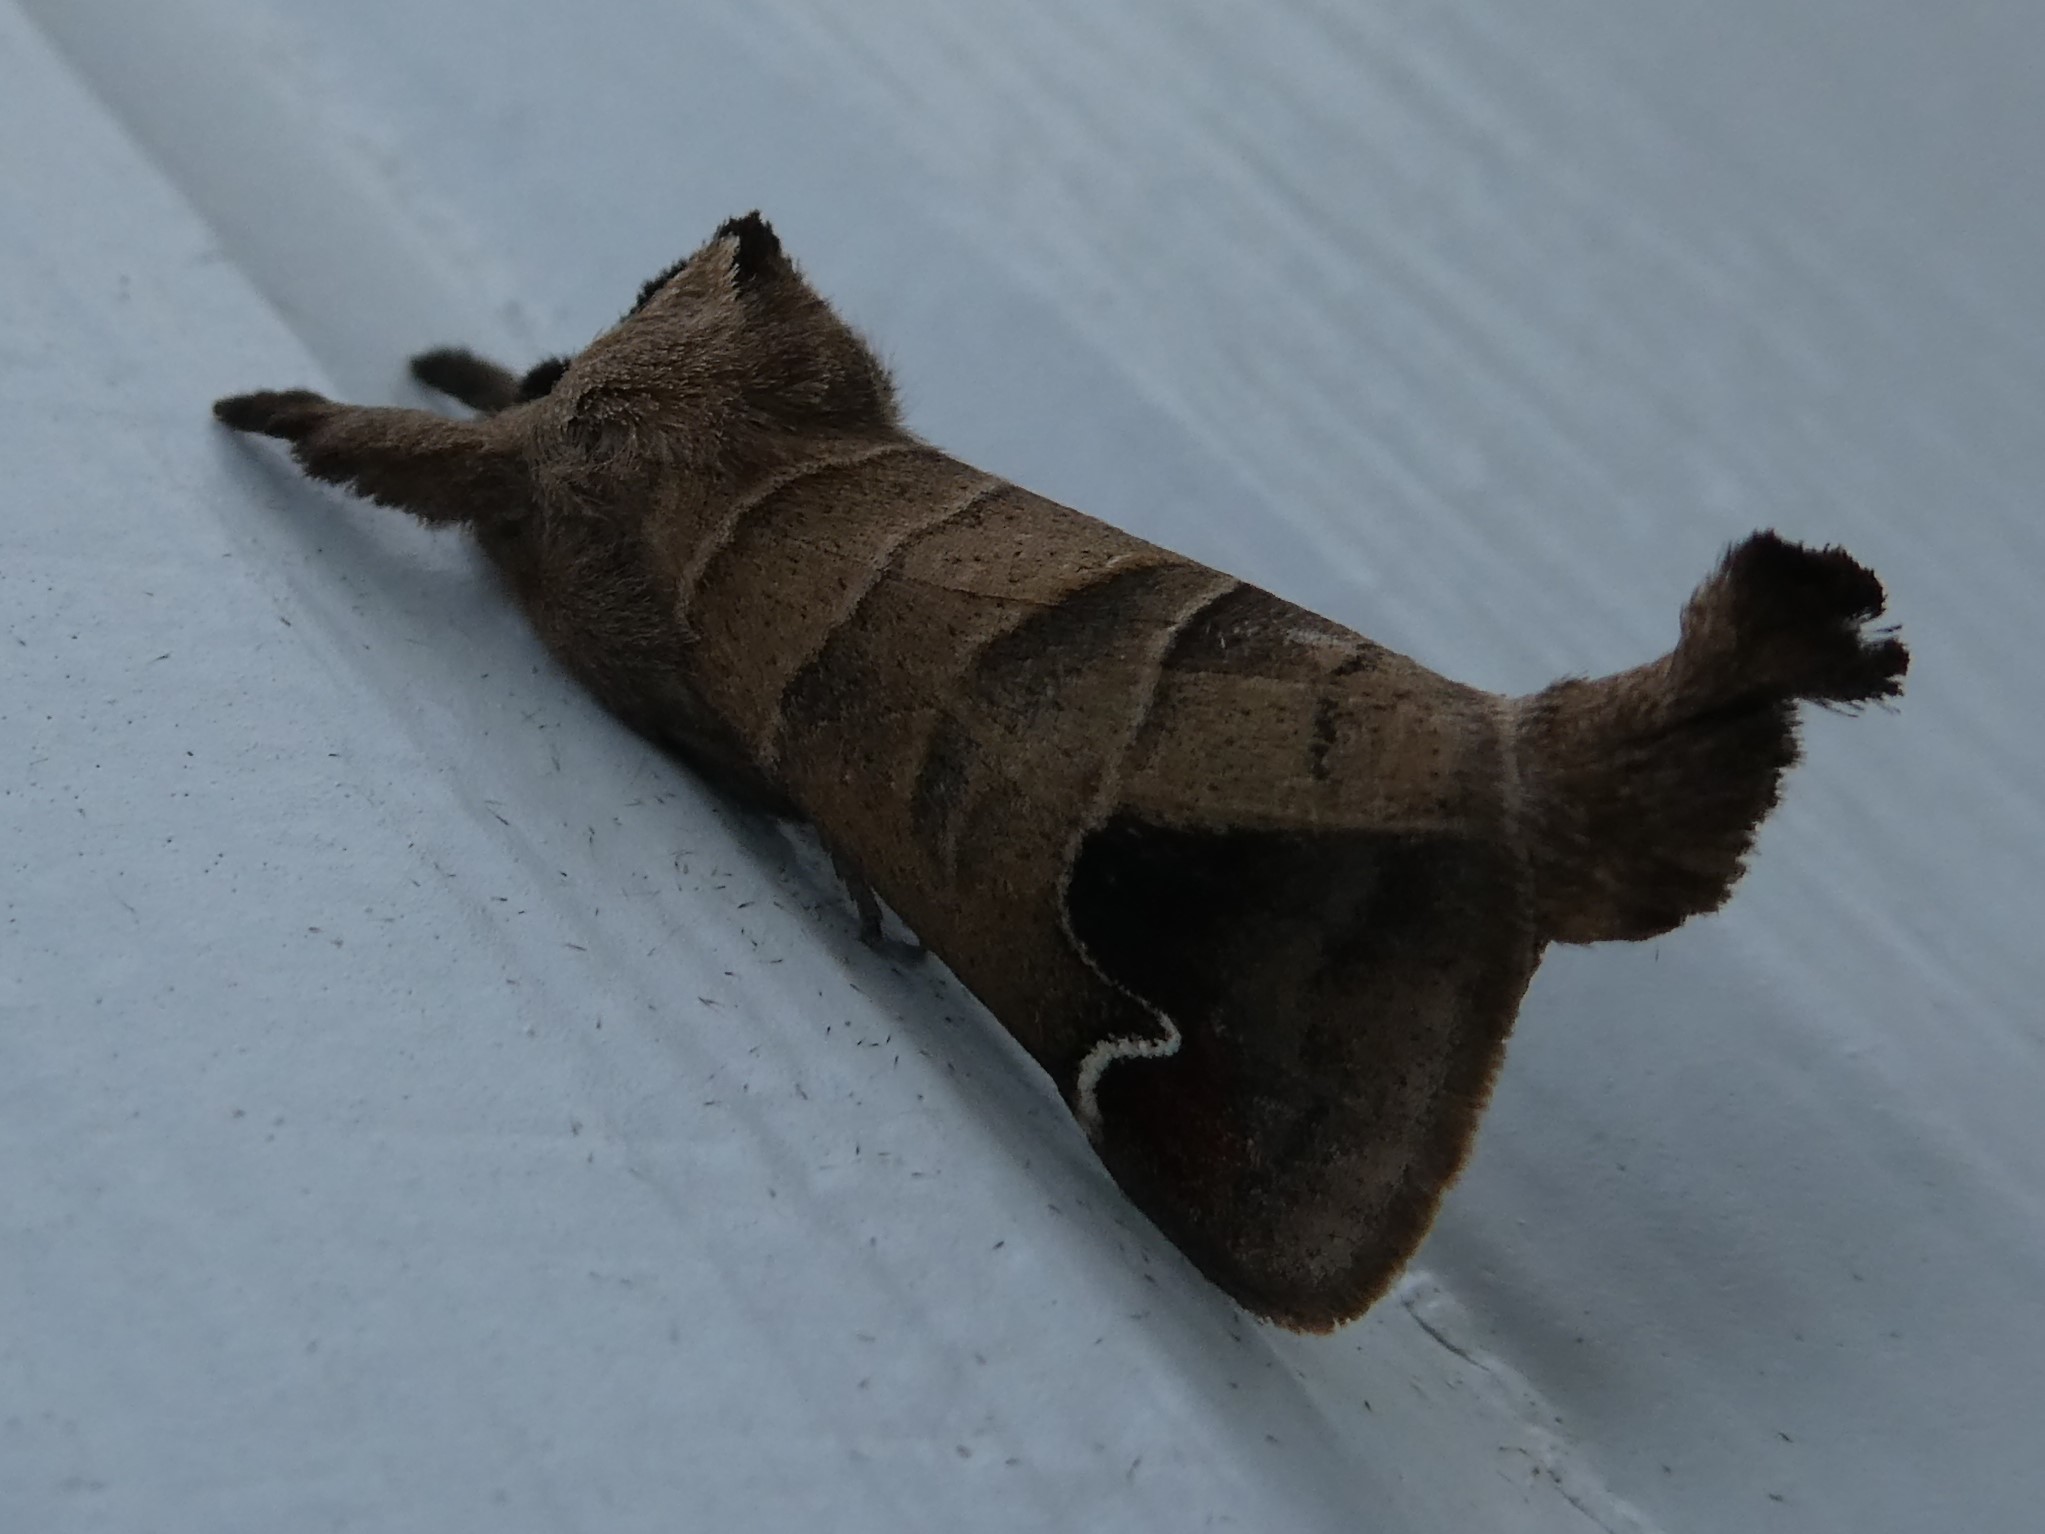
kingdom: Animalia
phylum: Arthropoda
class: Insecta
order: Lepidoptera
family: Notodontidae
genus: Clostera
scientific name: Clostera albosigma
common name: Sigmoid prominent
